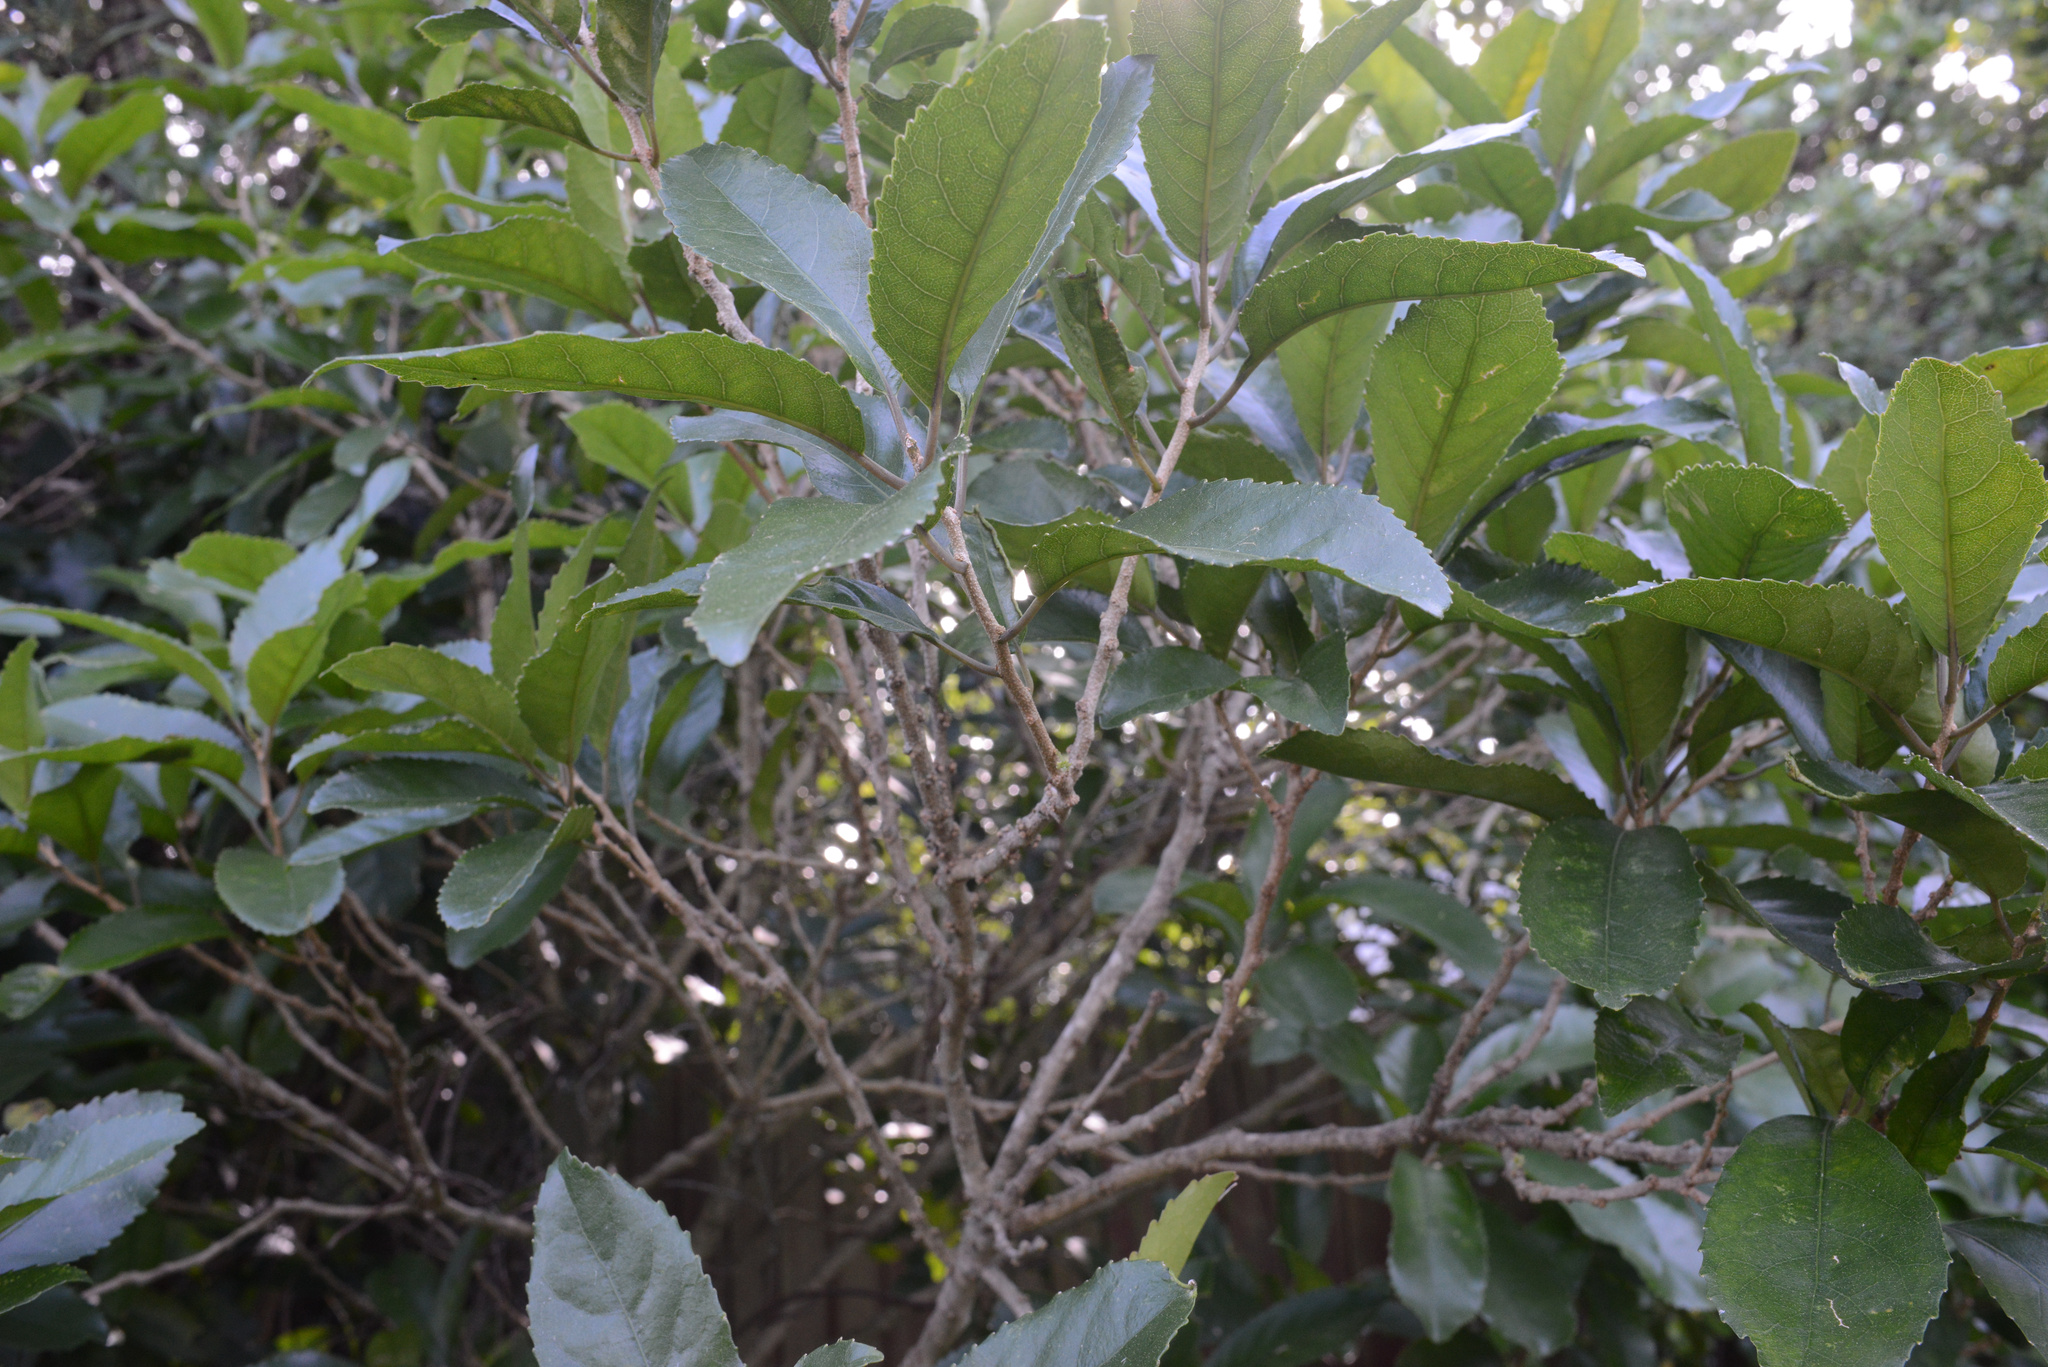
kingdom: Plantae
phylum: Tracheophyta
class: Magnoliopsida
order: Malpighiales
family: Violaceae
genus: Melicytus
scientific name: Melicytus ramiflorus
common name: Mahoe
